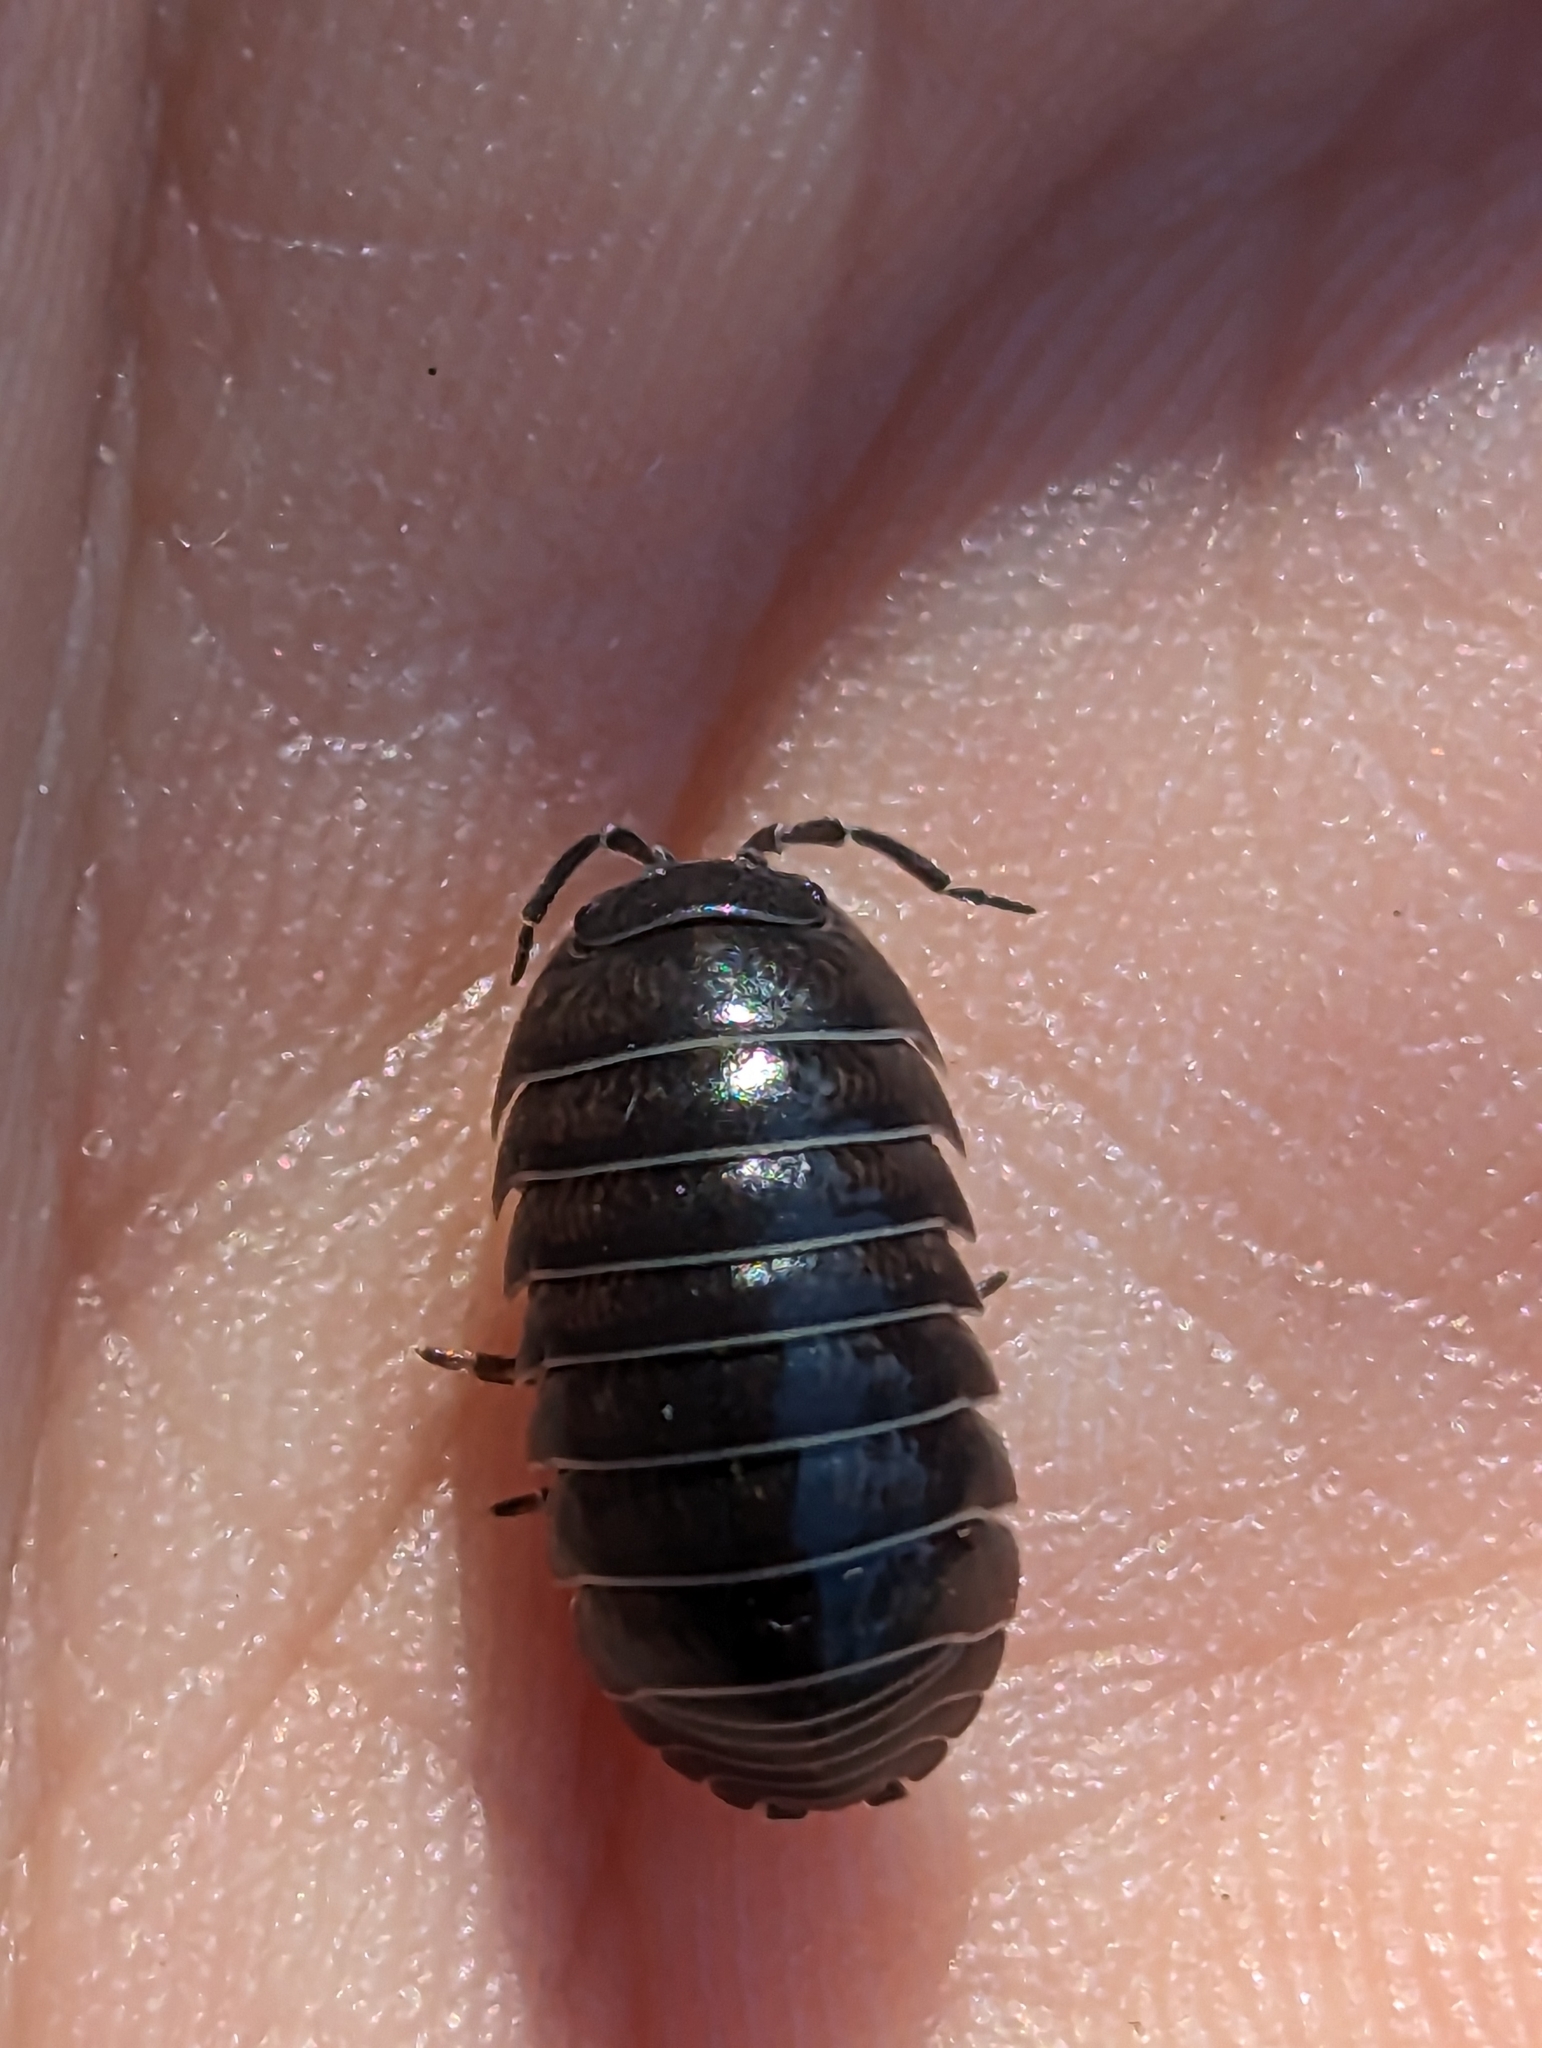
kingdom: Animalia
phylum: Arthropoda
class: Malacostraca
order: Isopoda
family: Armadillidiidae
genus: Armadillidium
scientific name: Armadillidium vulgare
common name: Common pill woodlouse
